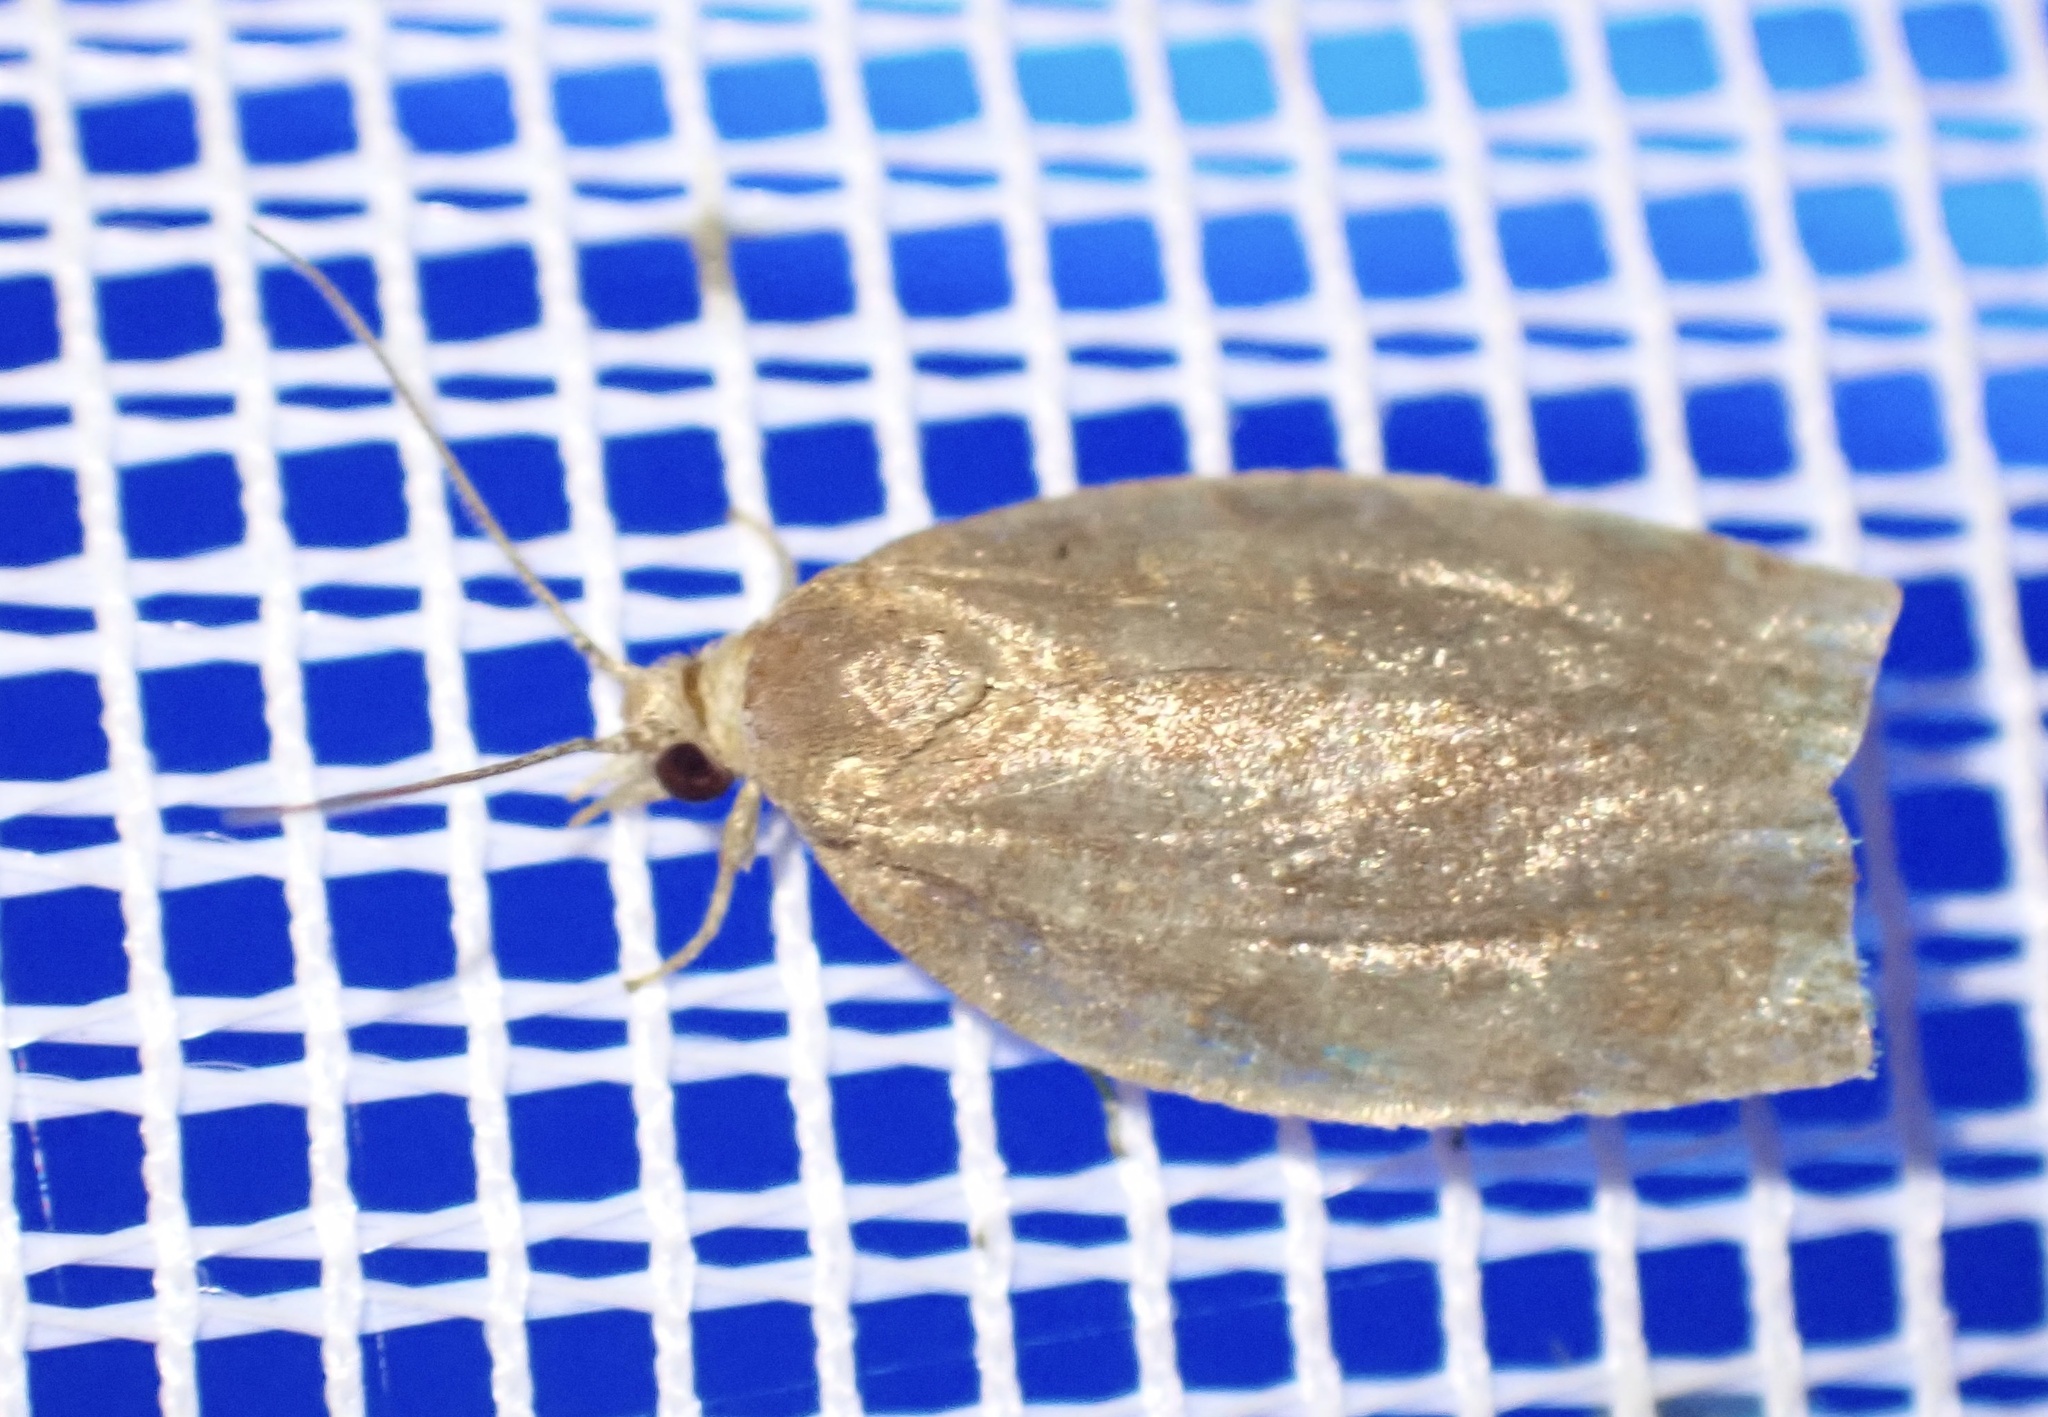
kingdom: Animalia
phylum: Arthropoda
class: Insecta
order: Lepidoptera
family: Tortricidae
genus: Archips
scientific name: Archips rosana
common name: Rose tortrix
